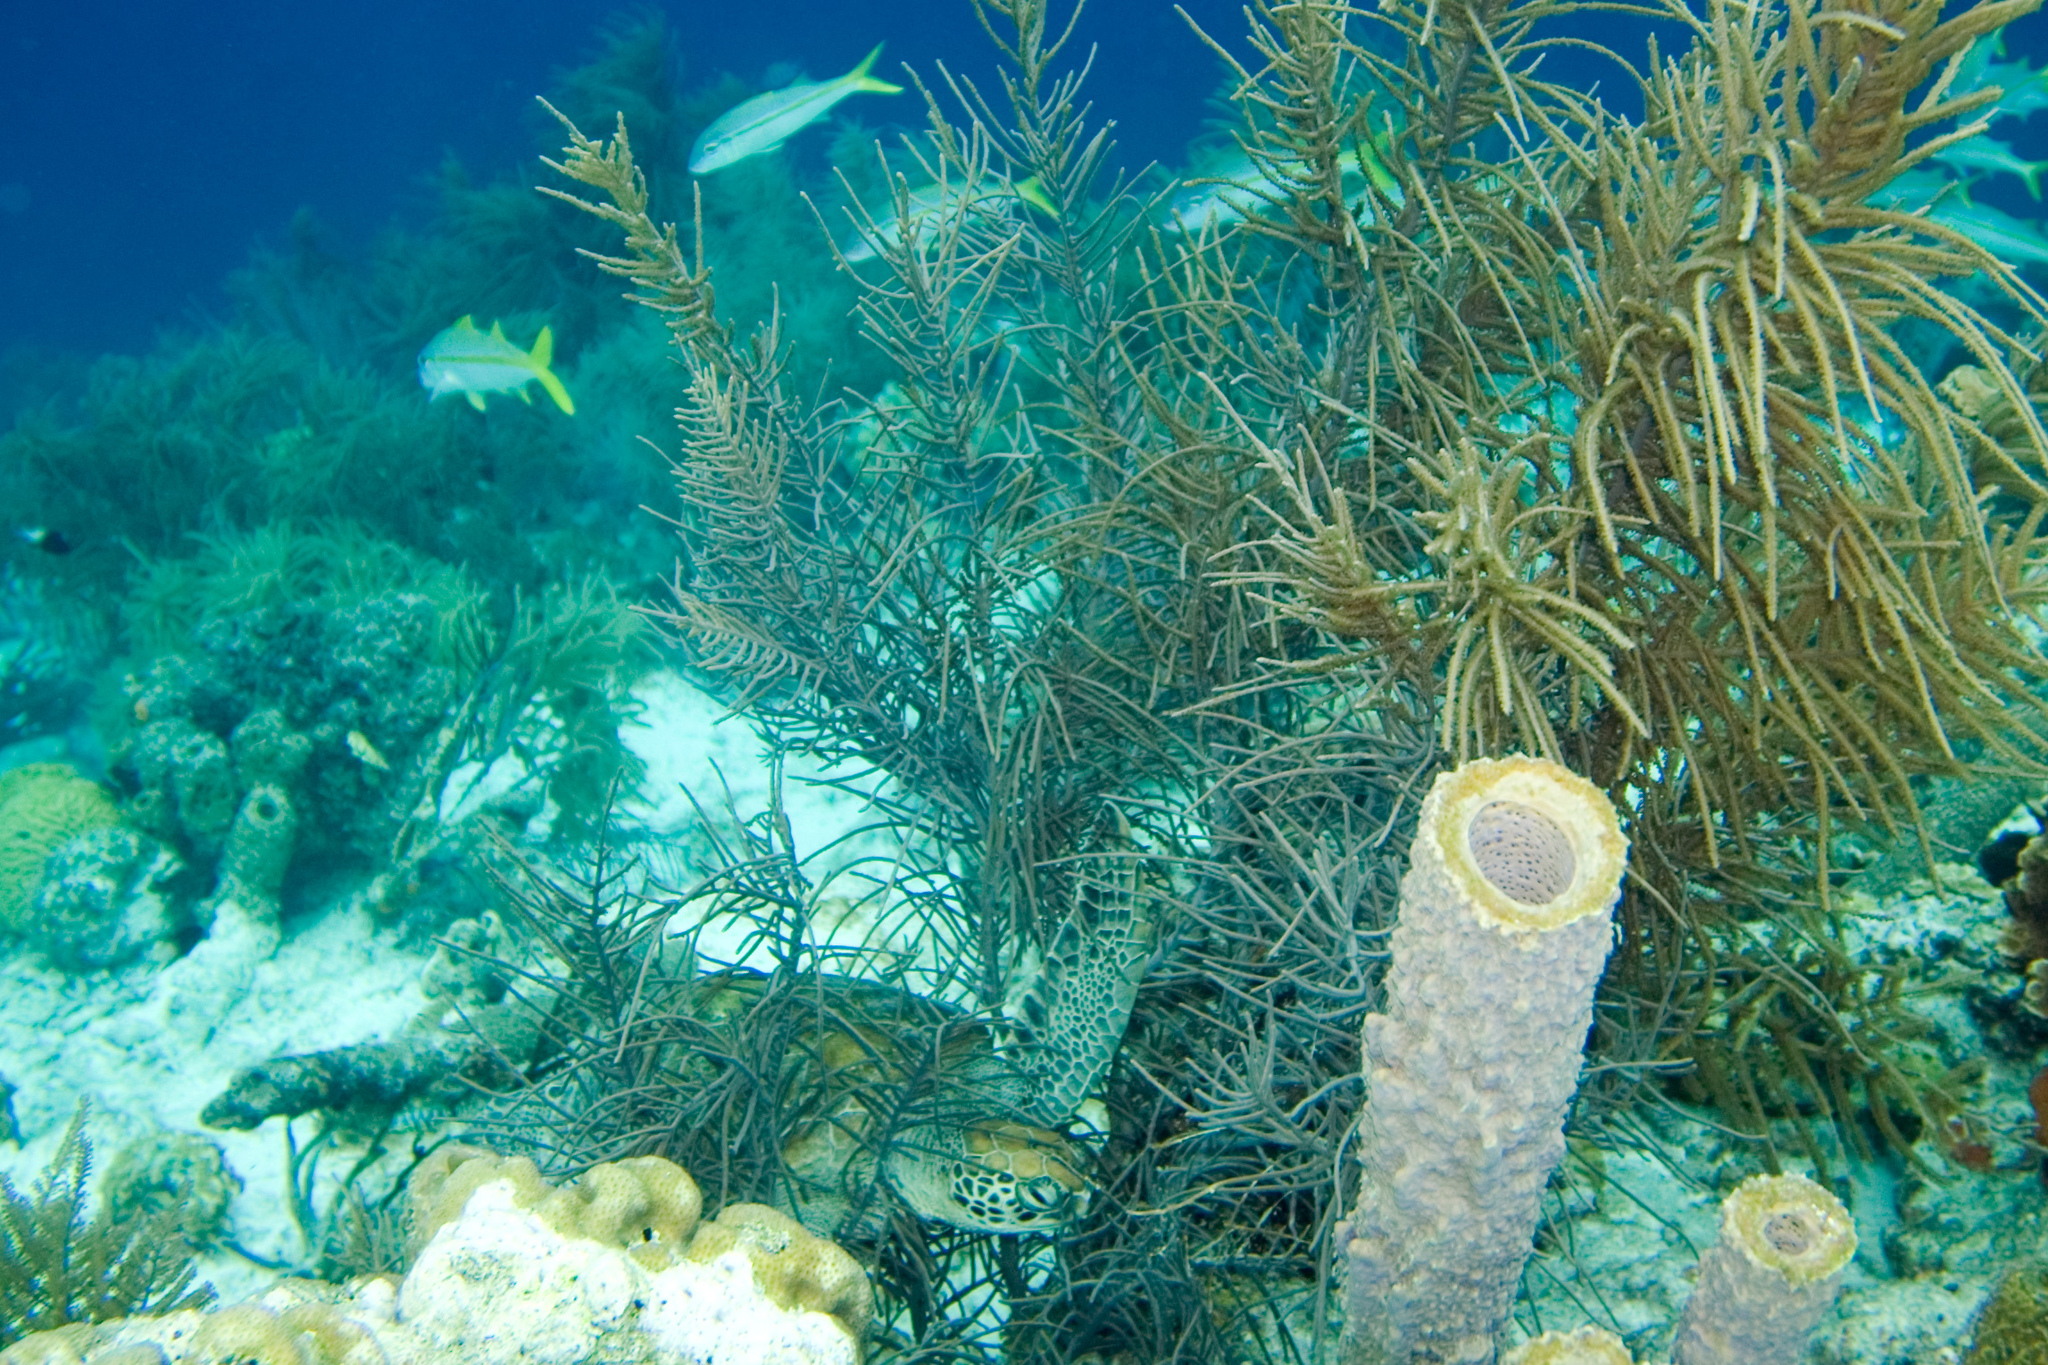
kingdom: Animalia
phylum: Chordata
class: Testudines
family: Cheloniidae
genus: Chelonia
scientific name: Chelonia mydas
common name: Green turtle
